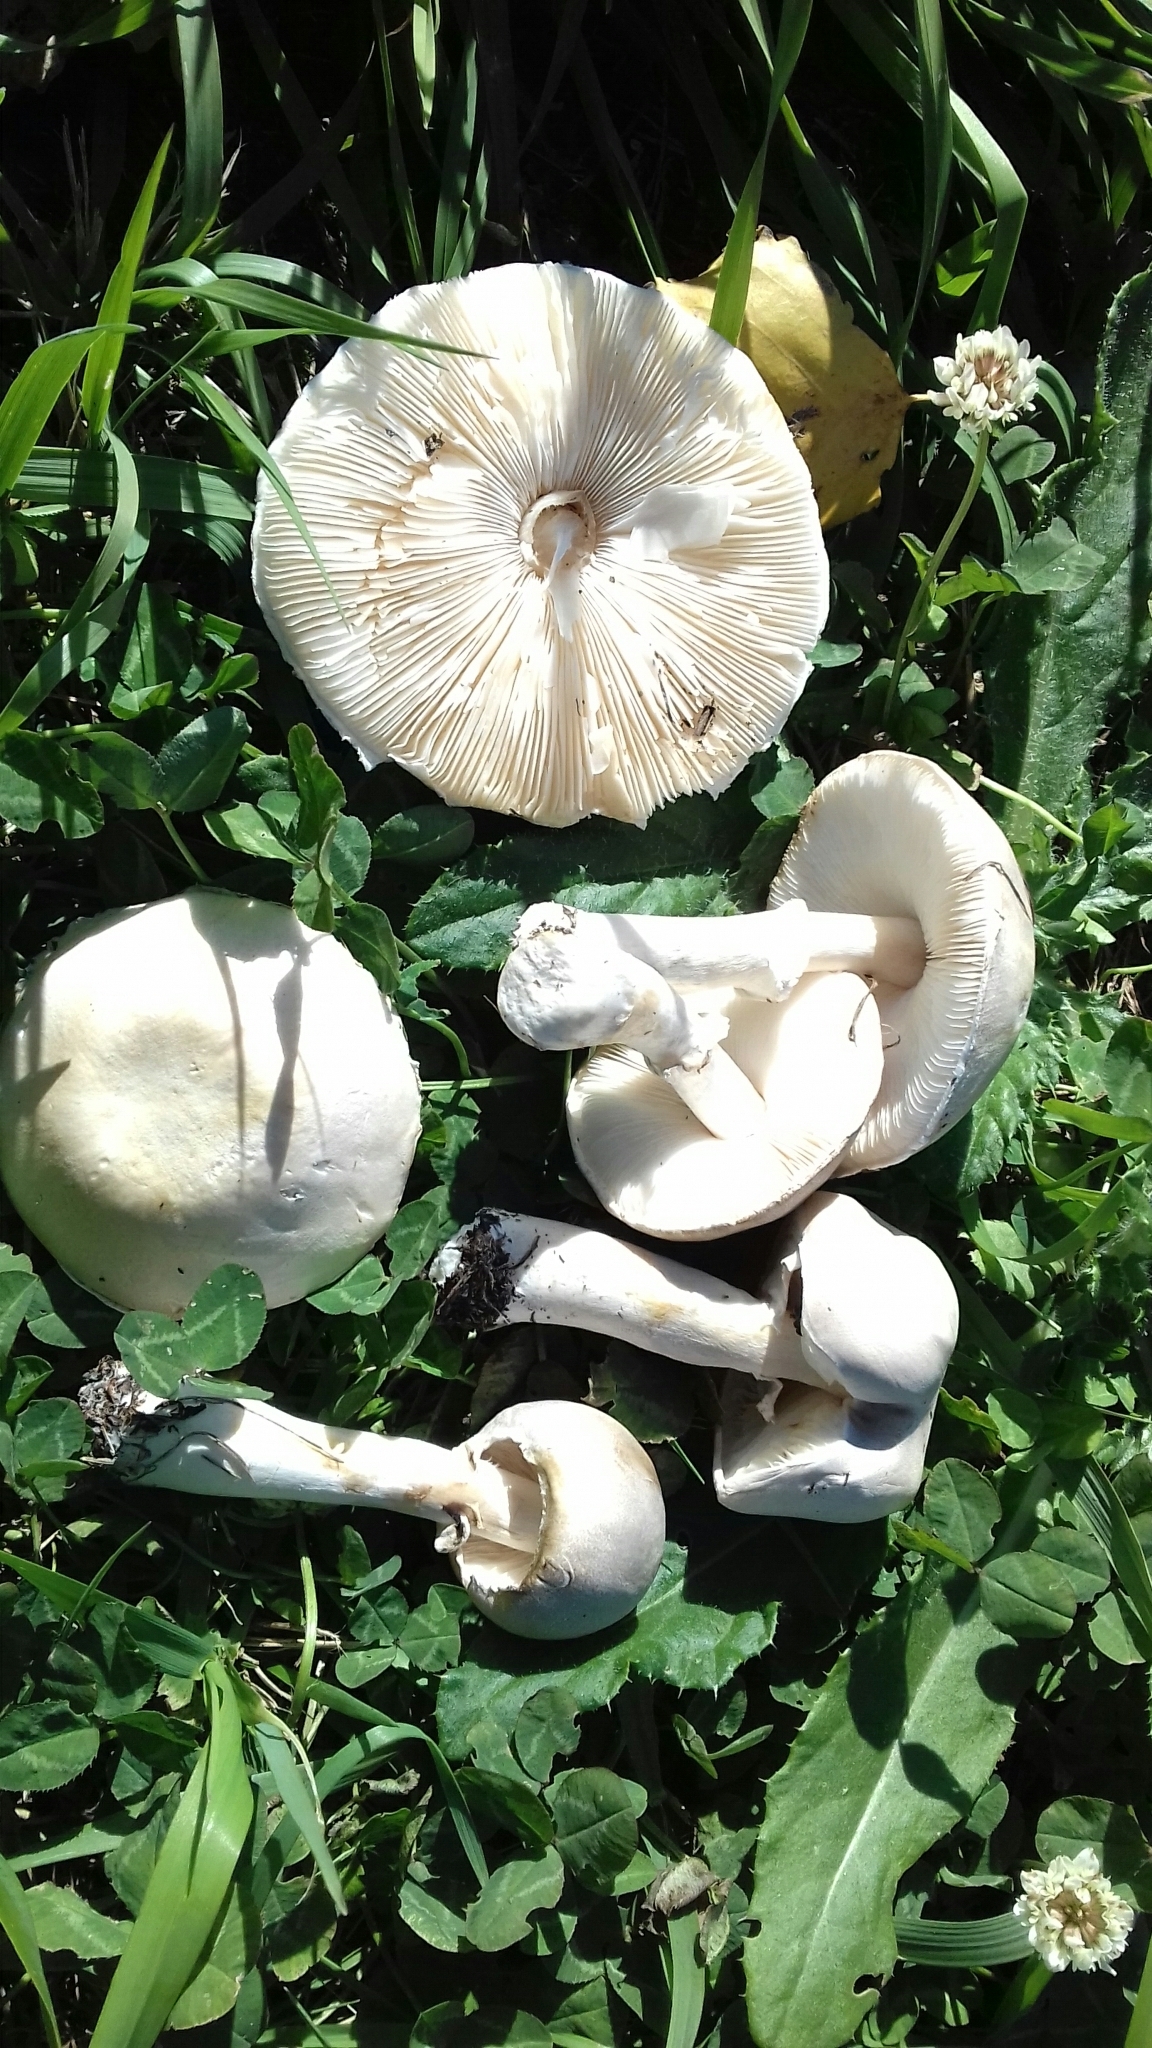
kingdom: Fungi
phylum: Basidiomycota
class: Agaricomycetes
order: Agaricales
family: Agaricaceae
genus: Leucoagaricus
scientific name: Leucoagaricus leucothites
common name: White dapperling
